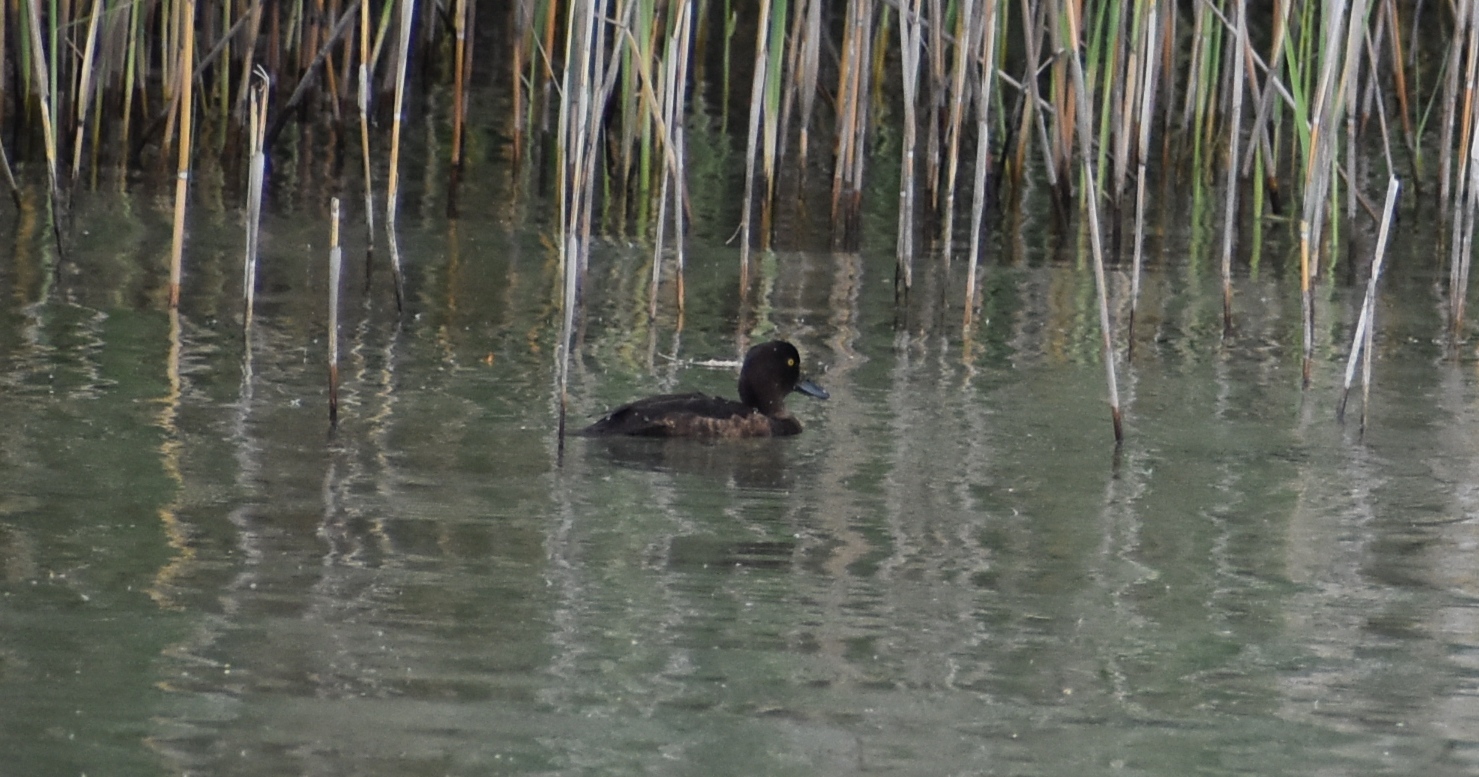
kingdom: Animalia
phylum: Chordata
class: Aves
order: Anseriformes
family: Anatidae
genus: Aythya
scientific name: Aythya fuligula
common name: Tufted duck
